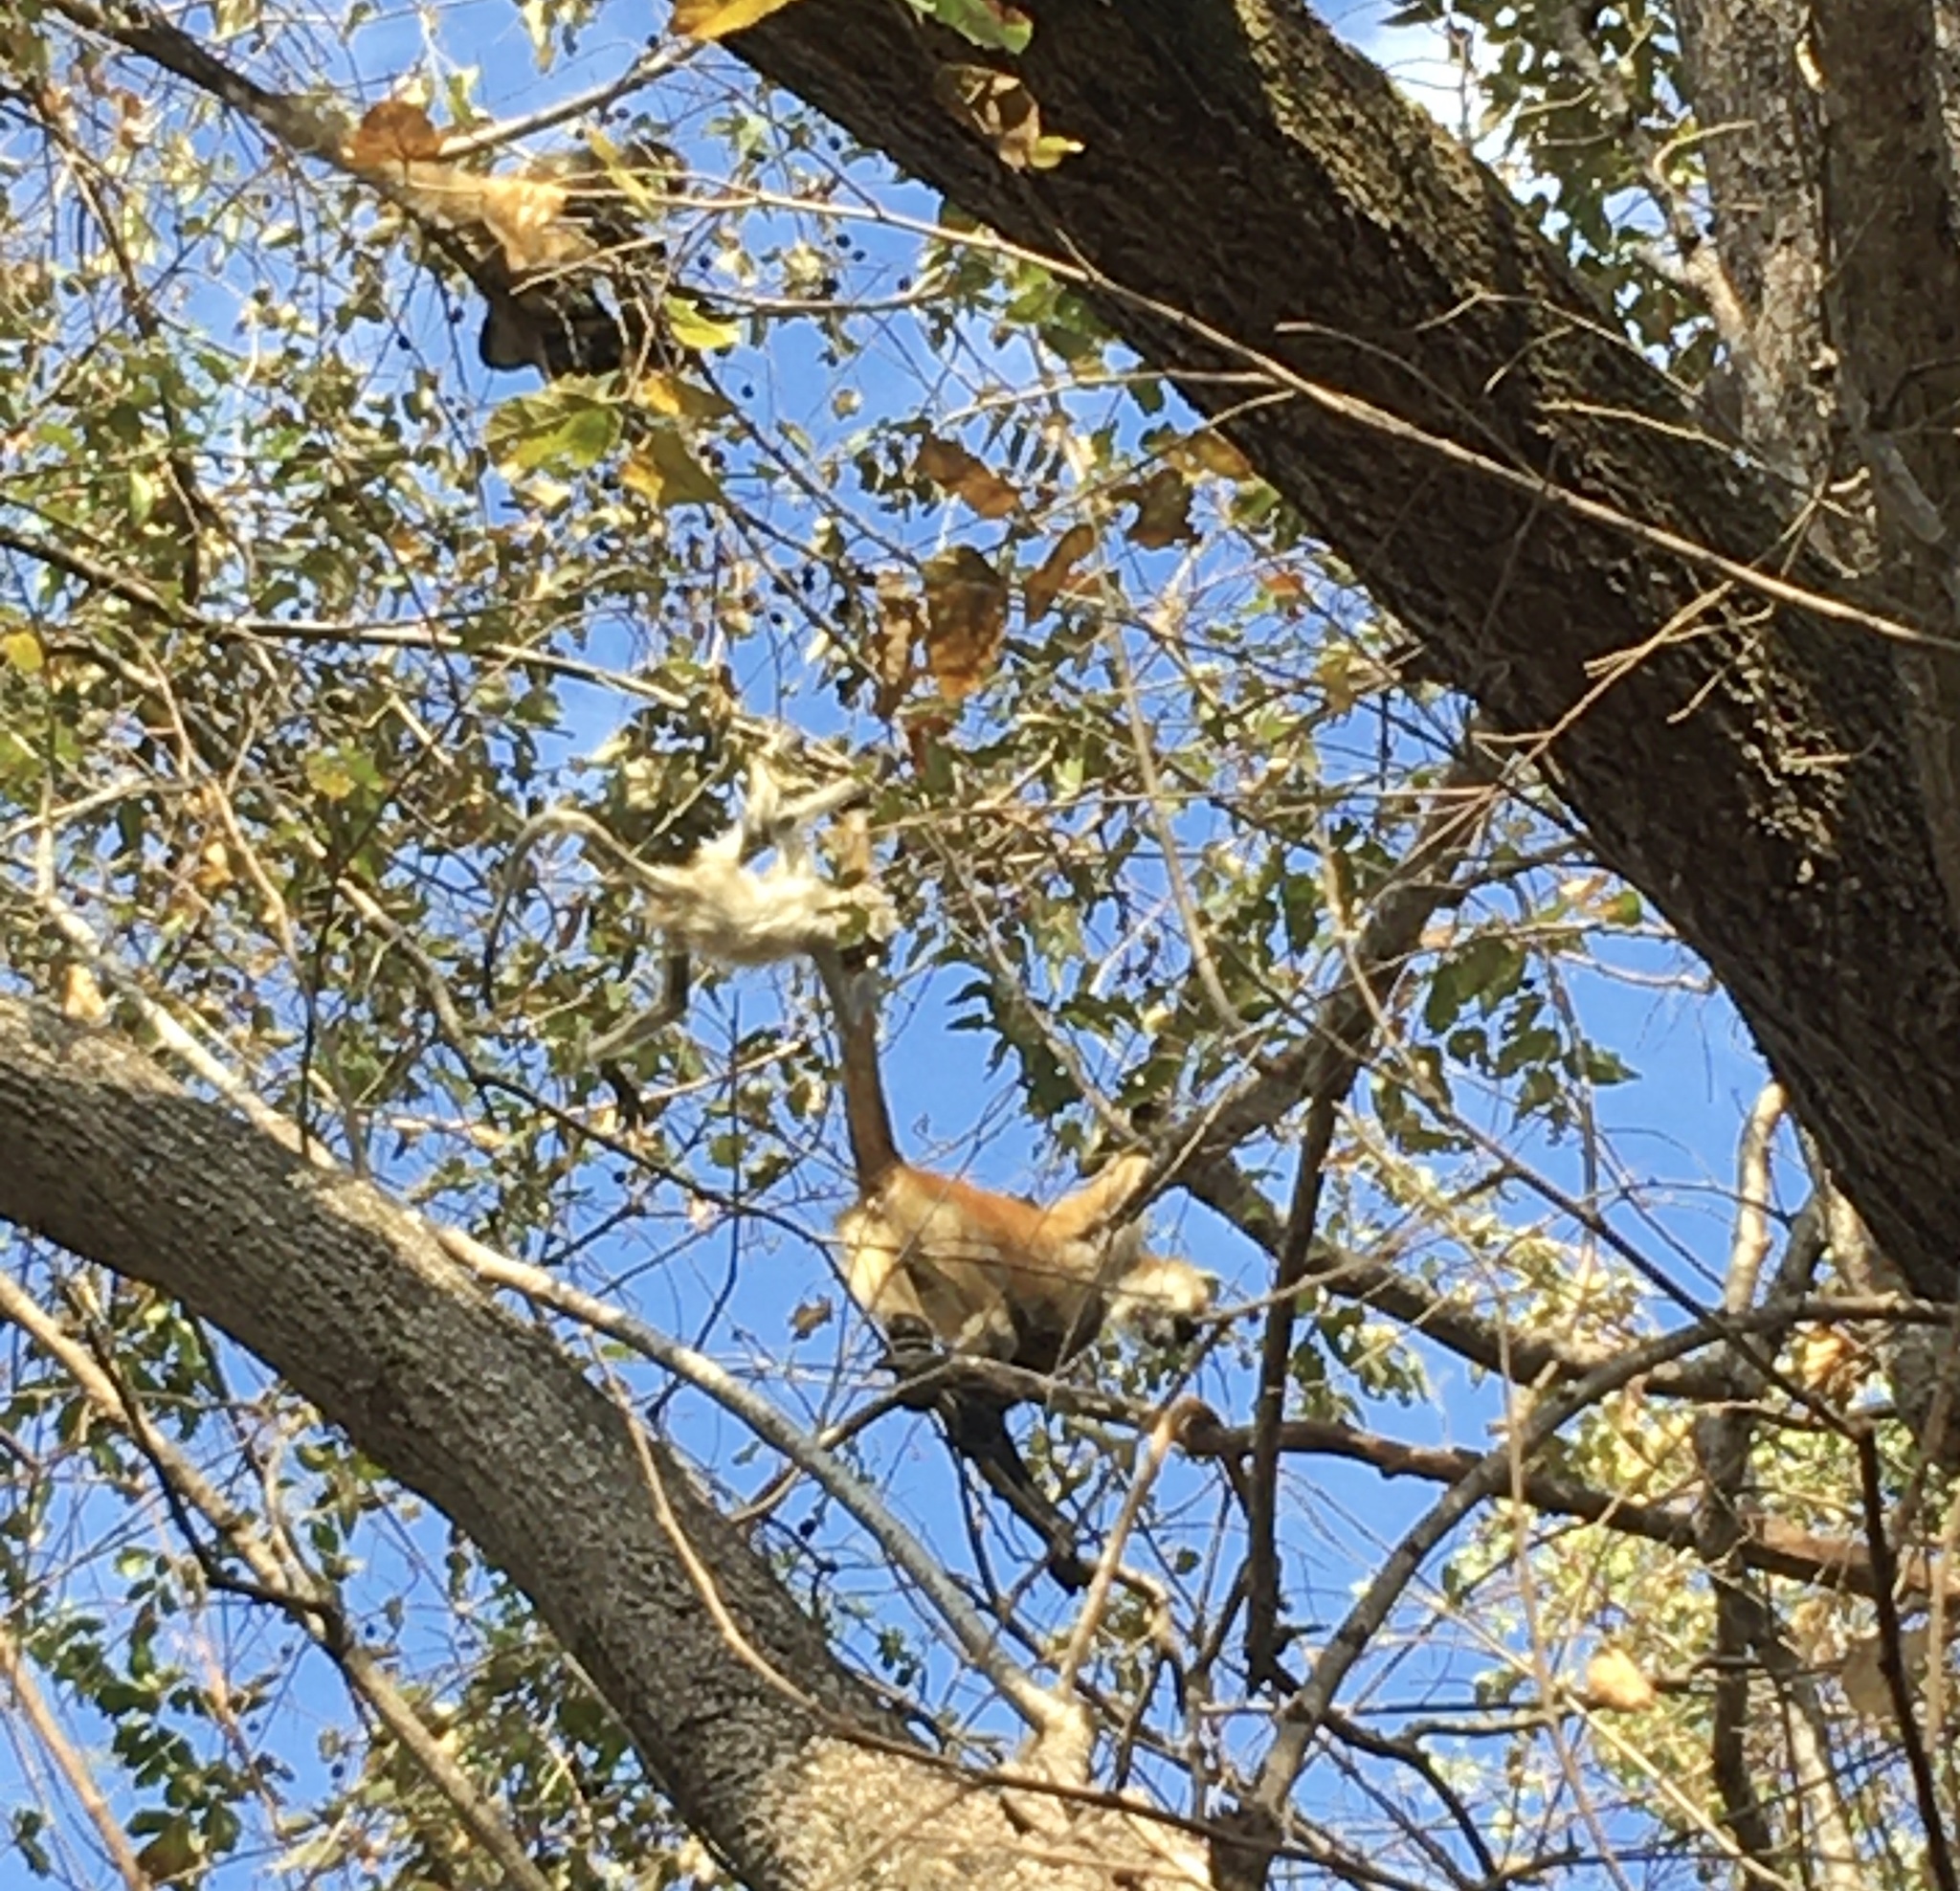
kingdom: Animalia
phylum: Chordata
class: Mammalia
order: Primates
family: Atelidae
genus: Ateles
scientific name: Ateles geoffroyi
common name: Black-handed spider monkey
